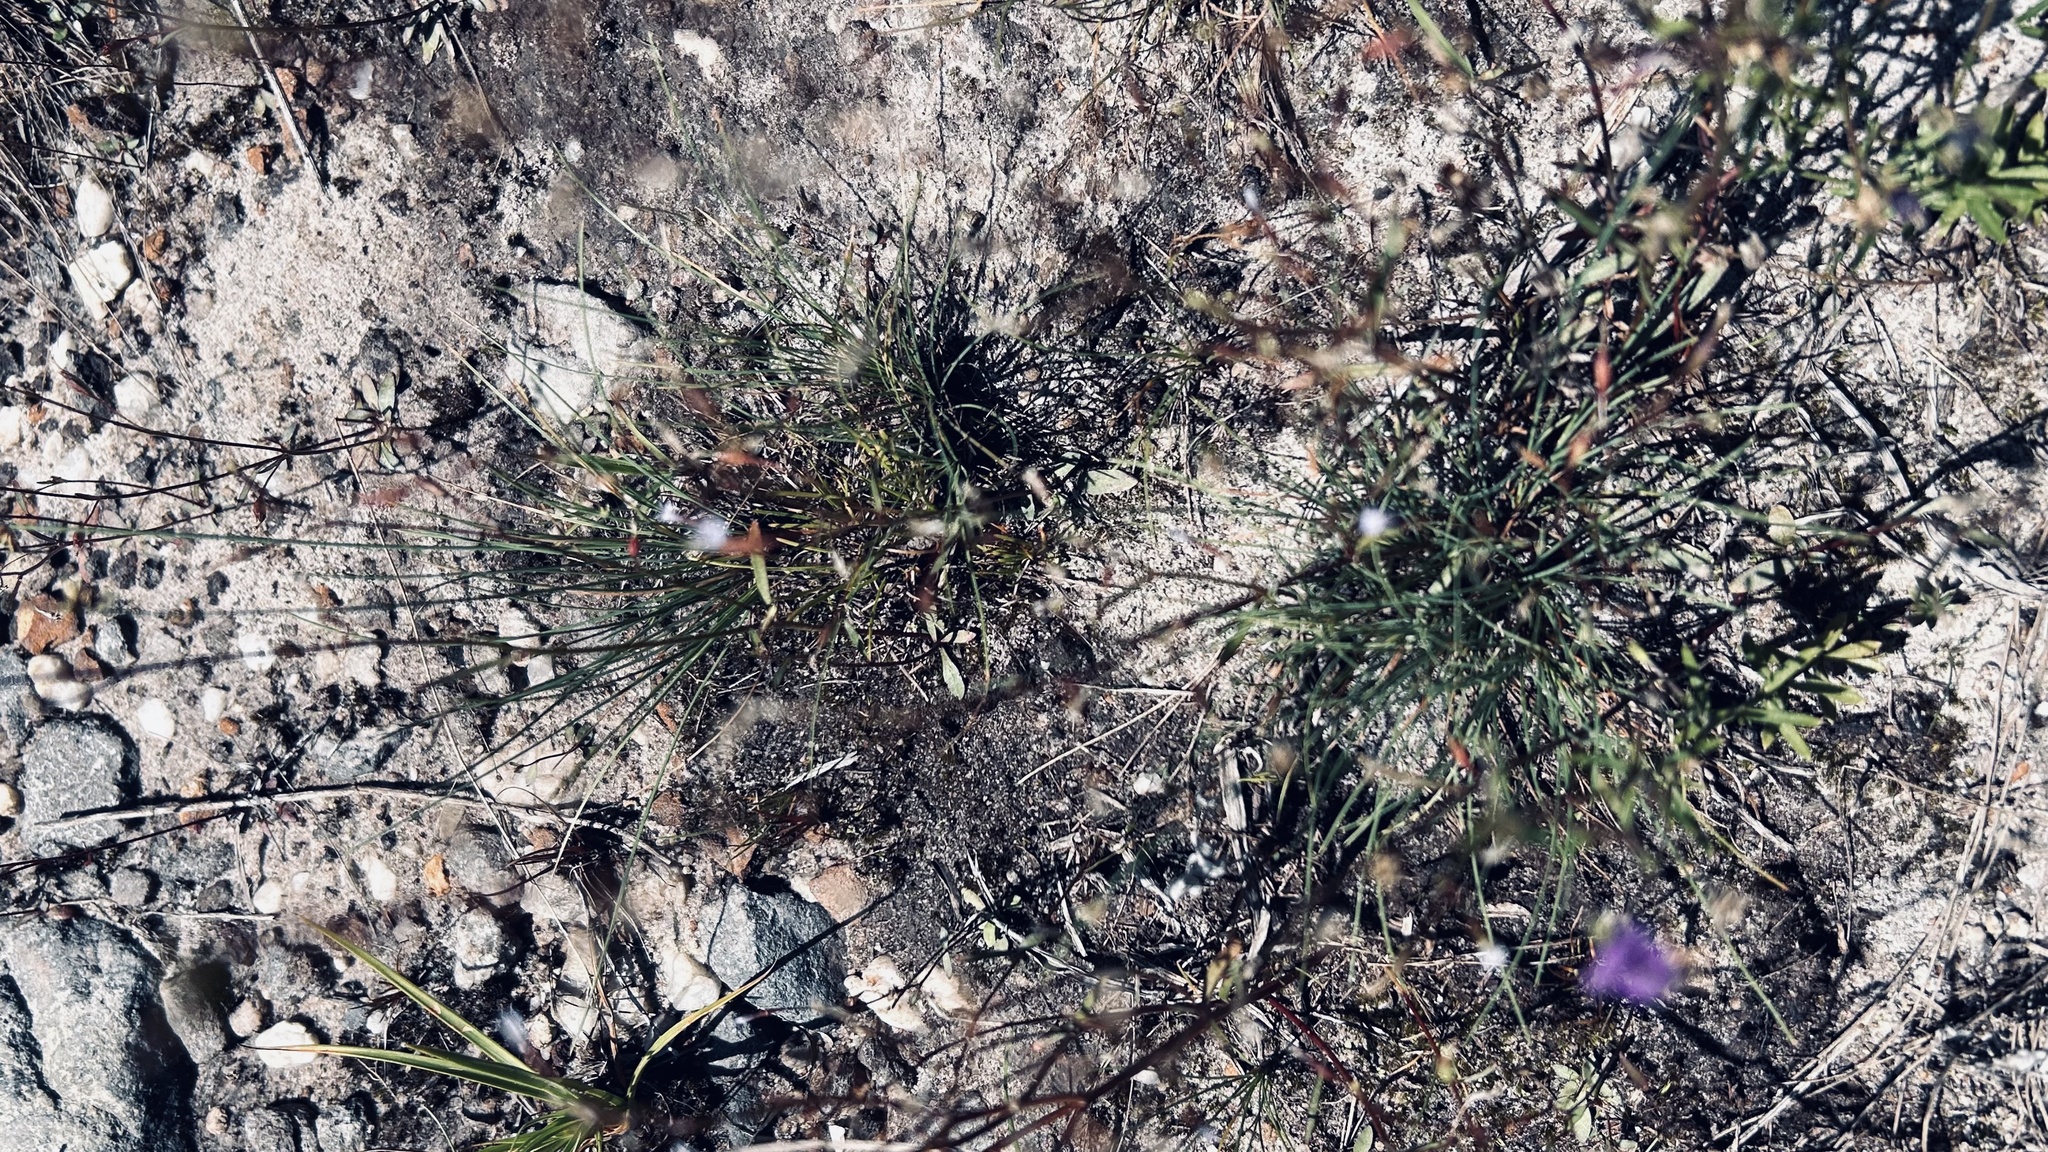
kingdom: Plantae
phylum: Tracheophyta
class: Magnoliopsida
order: Asterales
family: Campanulaceae
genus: Wimmerella
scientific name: Wimmerella arabidea
